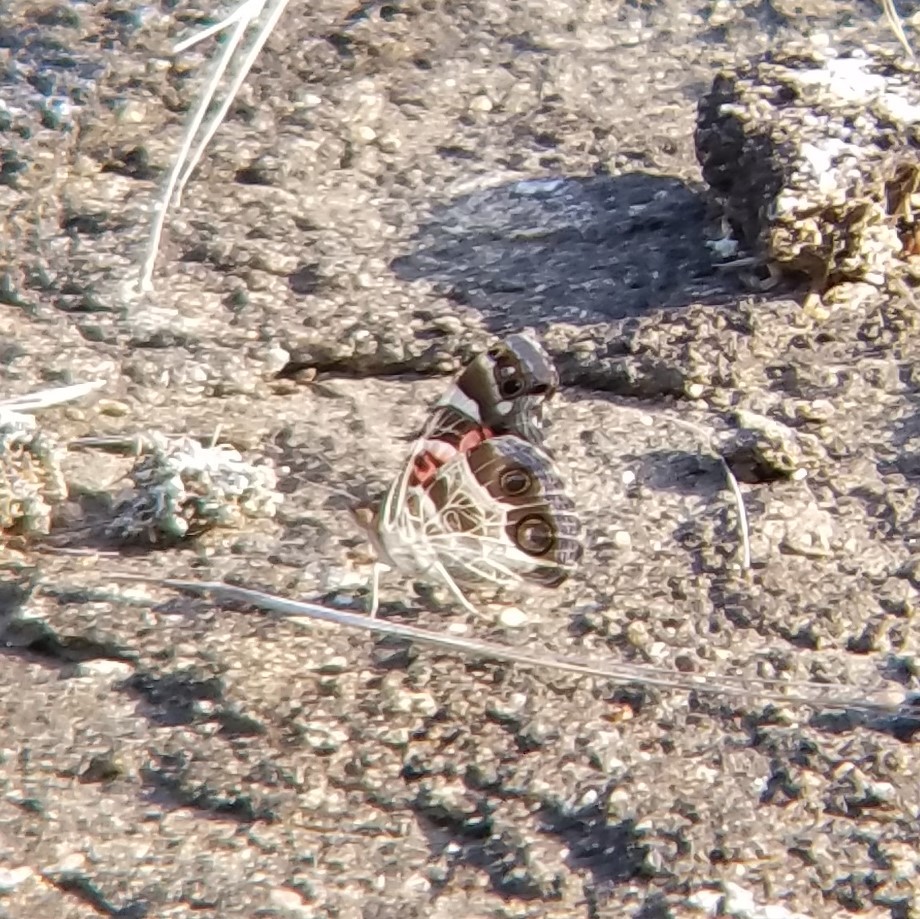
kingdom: Animalia
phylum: Arthropoda
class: Insecta
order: Lepidoptera
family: Nymphalidae
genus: Vanessa
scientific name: Vanessa virginiensis
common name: American lady
